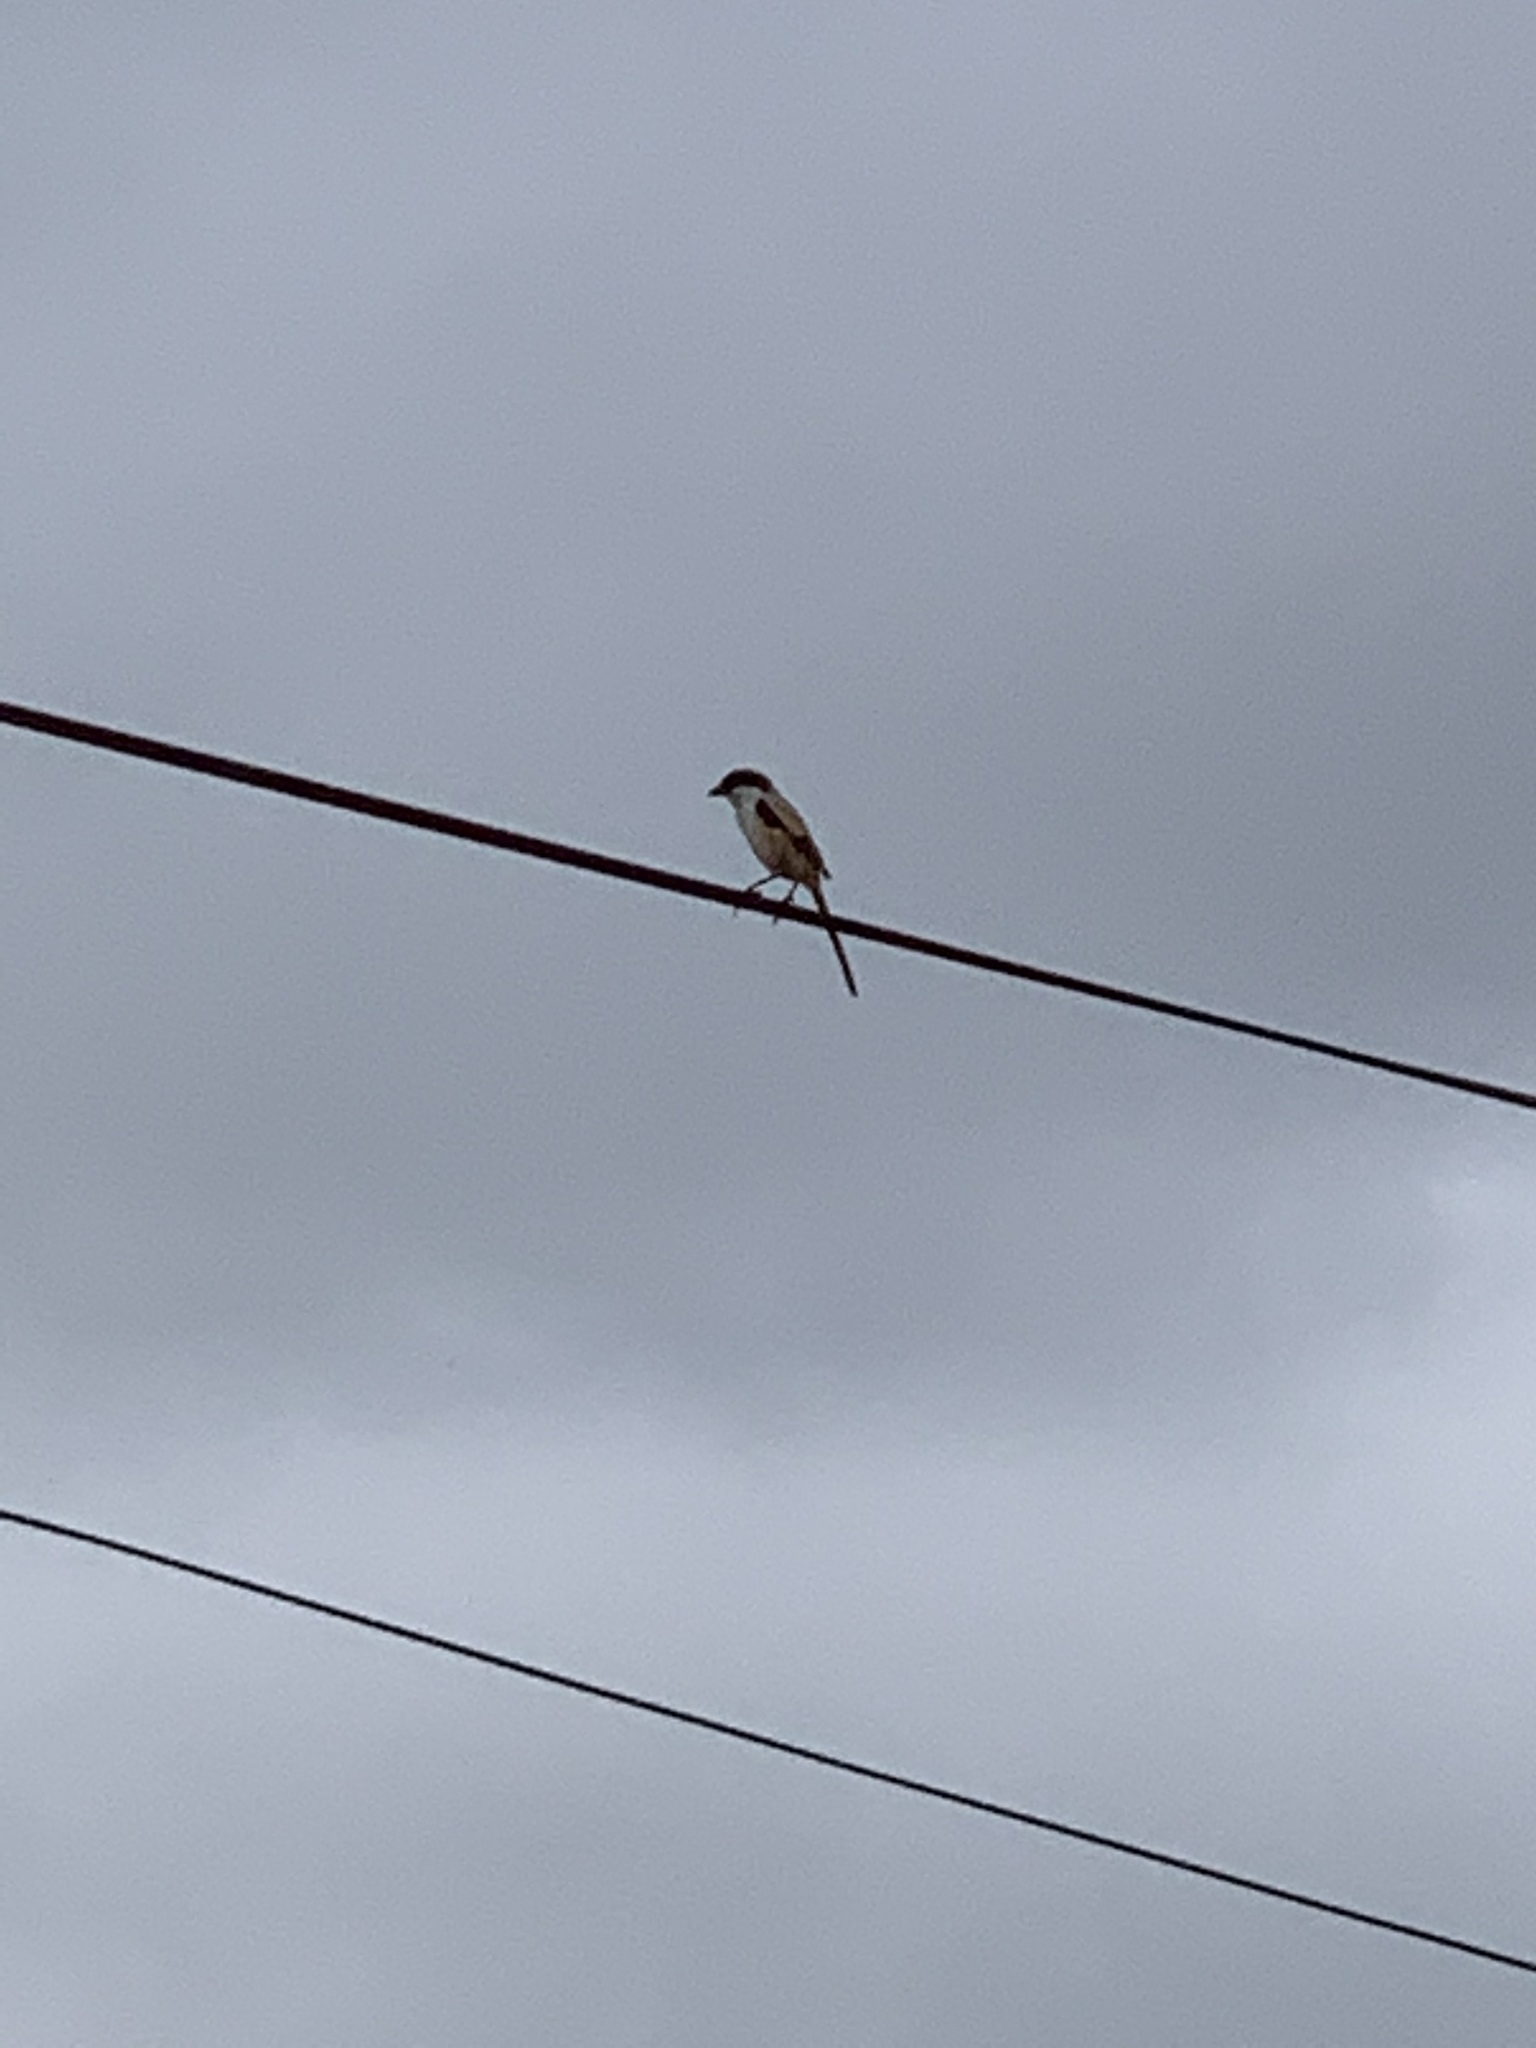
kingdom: Animalia
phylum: Chordata
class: Aves
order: Passeriformes
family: Laniidae
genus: Lanius
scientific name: Lanius schach
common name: Long-tailed shrike
